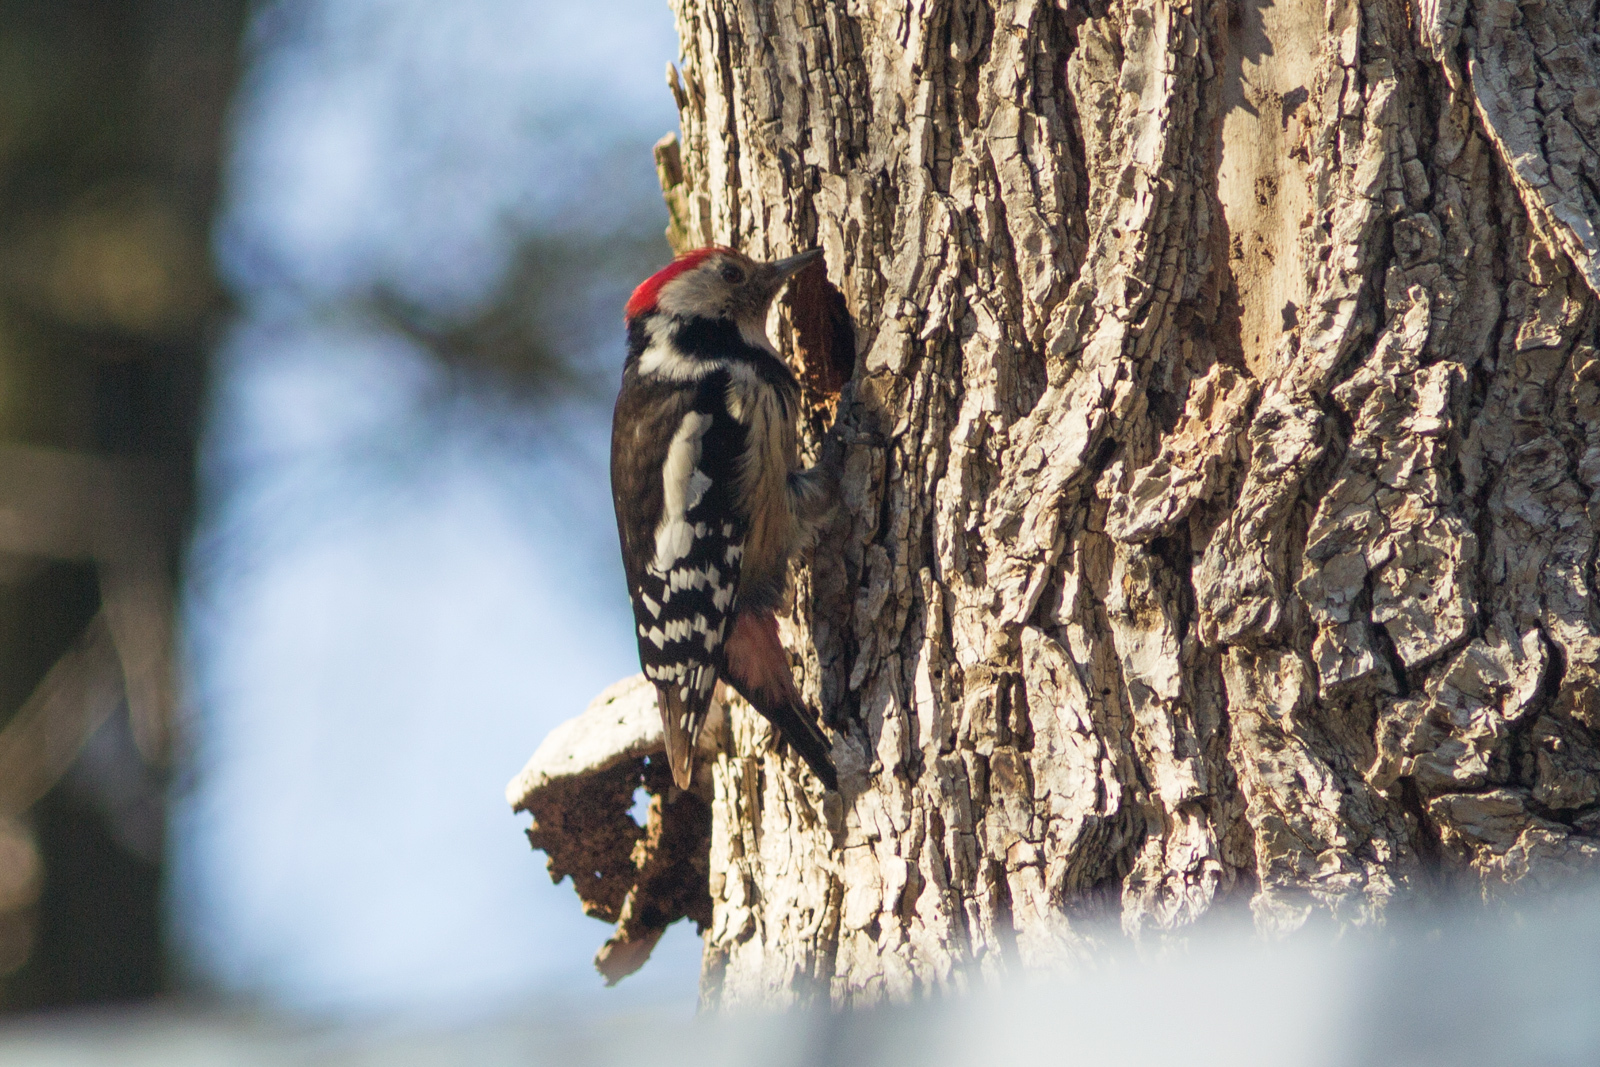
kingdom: Animalia
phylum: Chordata
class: Aves
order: Piciformes
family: Picidae
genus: Dendrocoptes
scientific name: Dendrocoptes medius
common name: Middle spotted woodpecker
